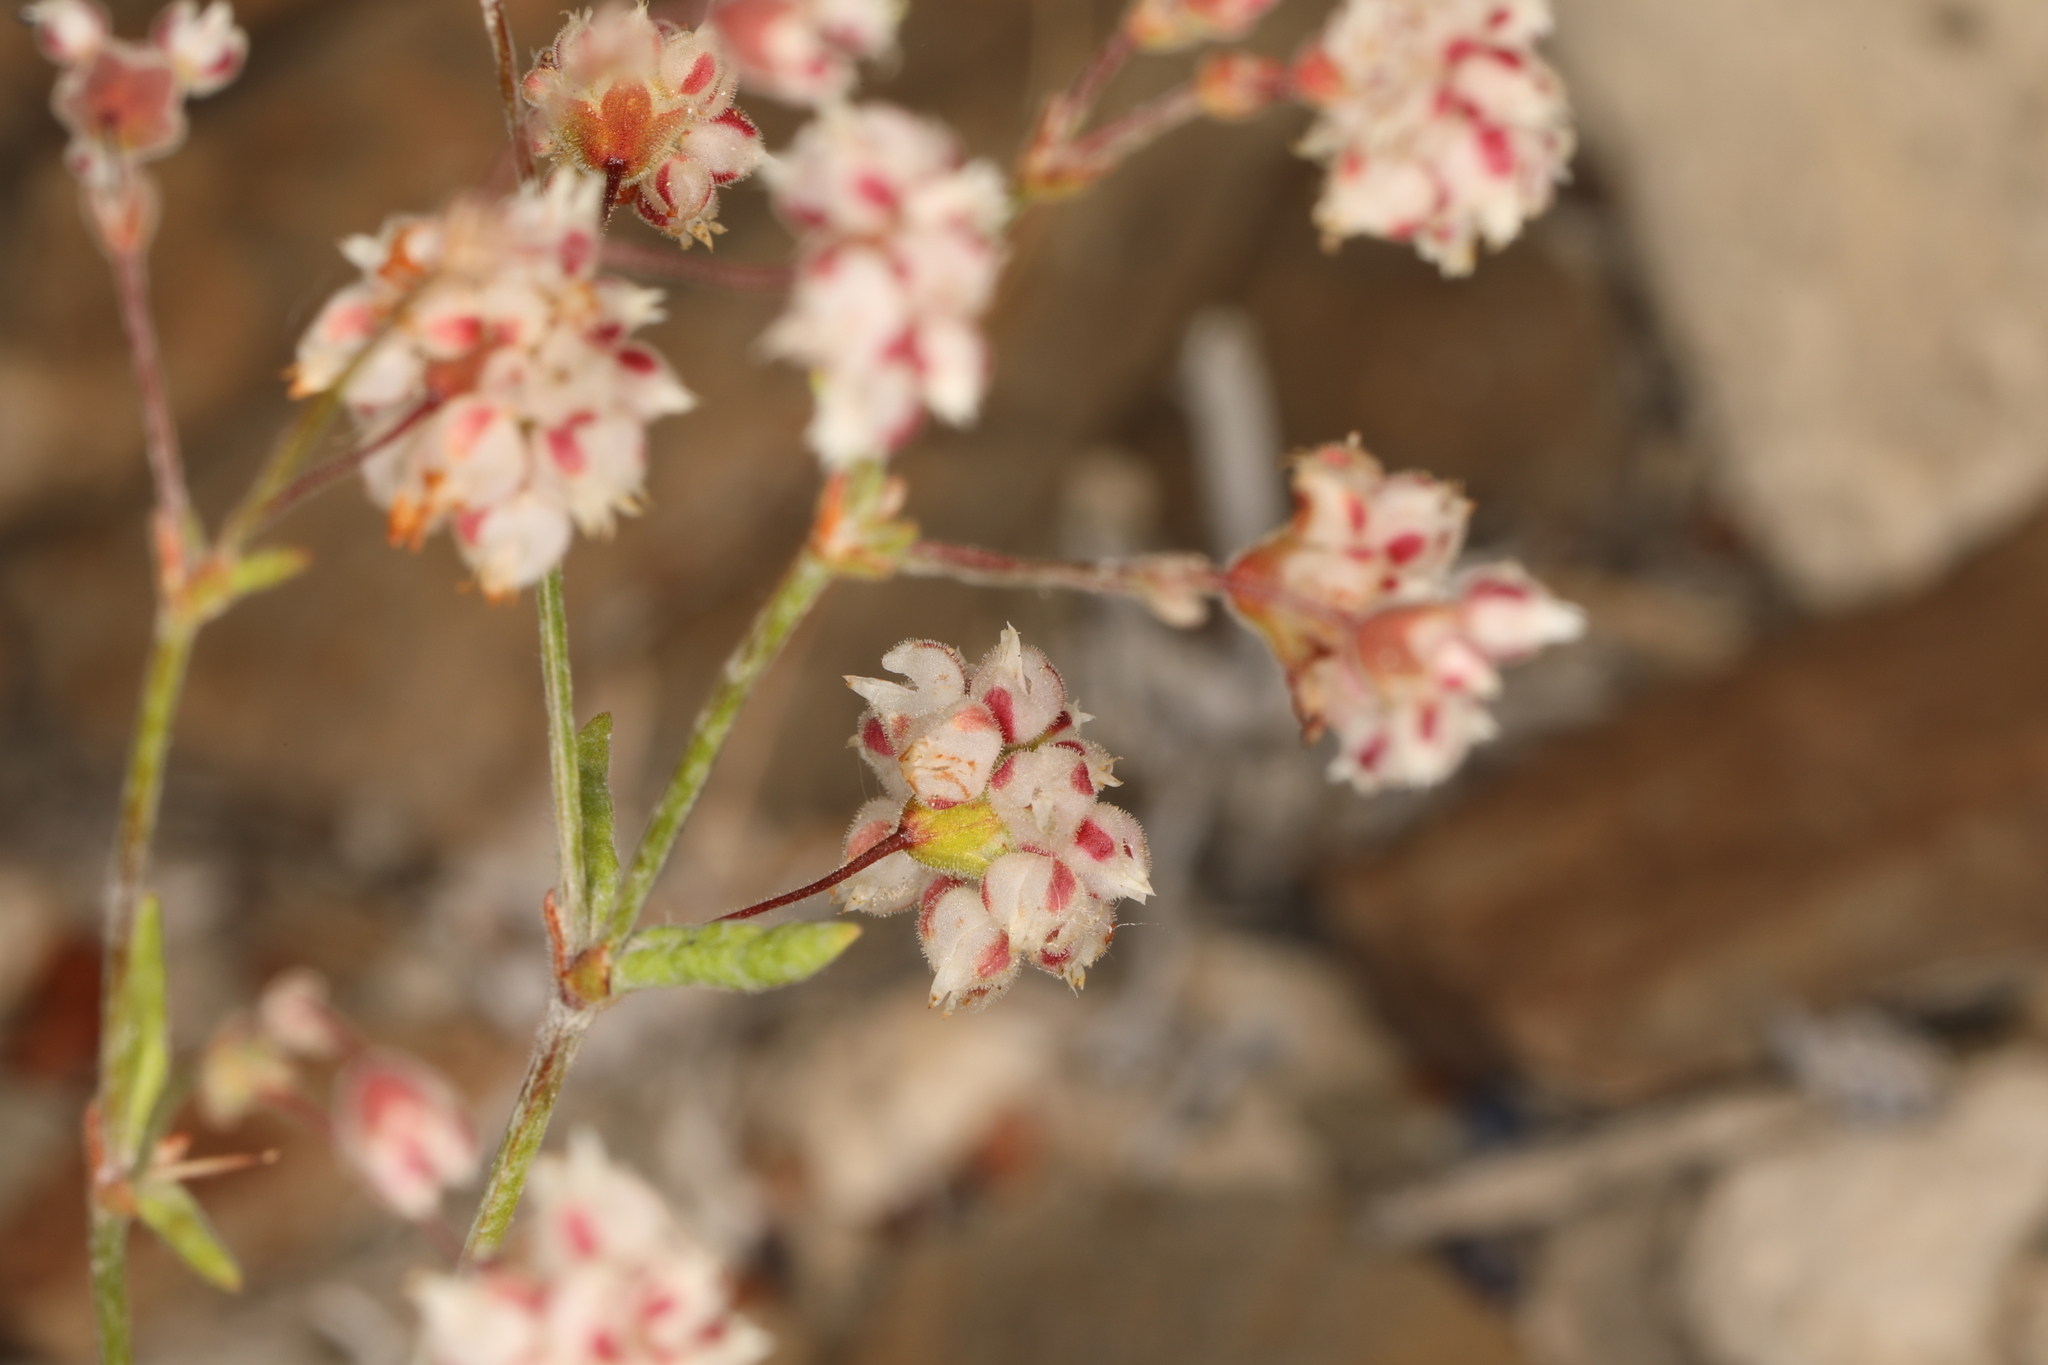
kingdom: Plantae
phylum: Tracheophyta
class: Magnoliopsida
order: Caryophyllales
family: Polygonaceae
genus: Eriogonum
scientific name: Eriogonum maculatum
